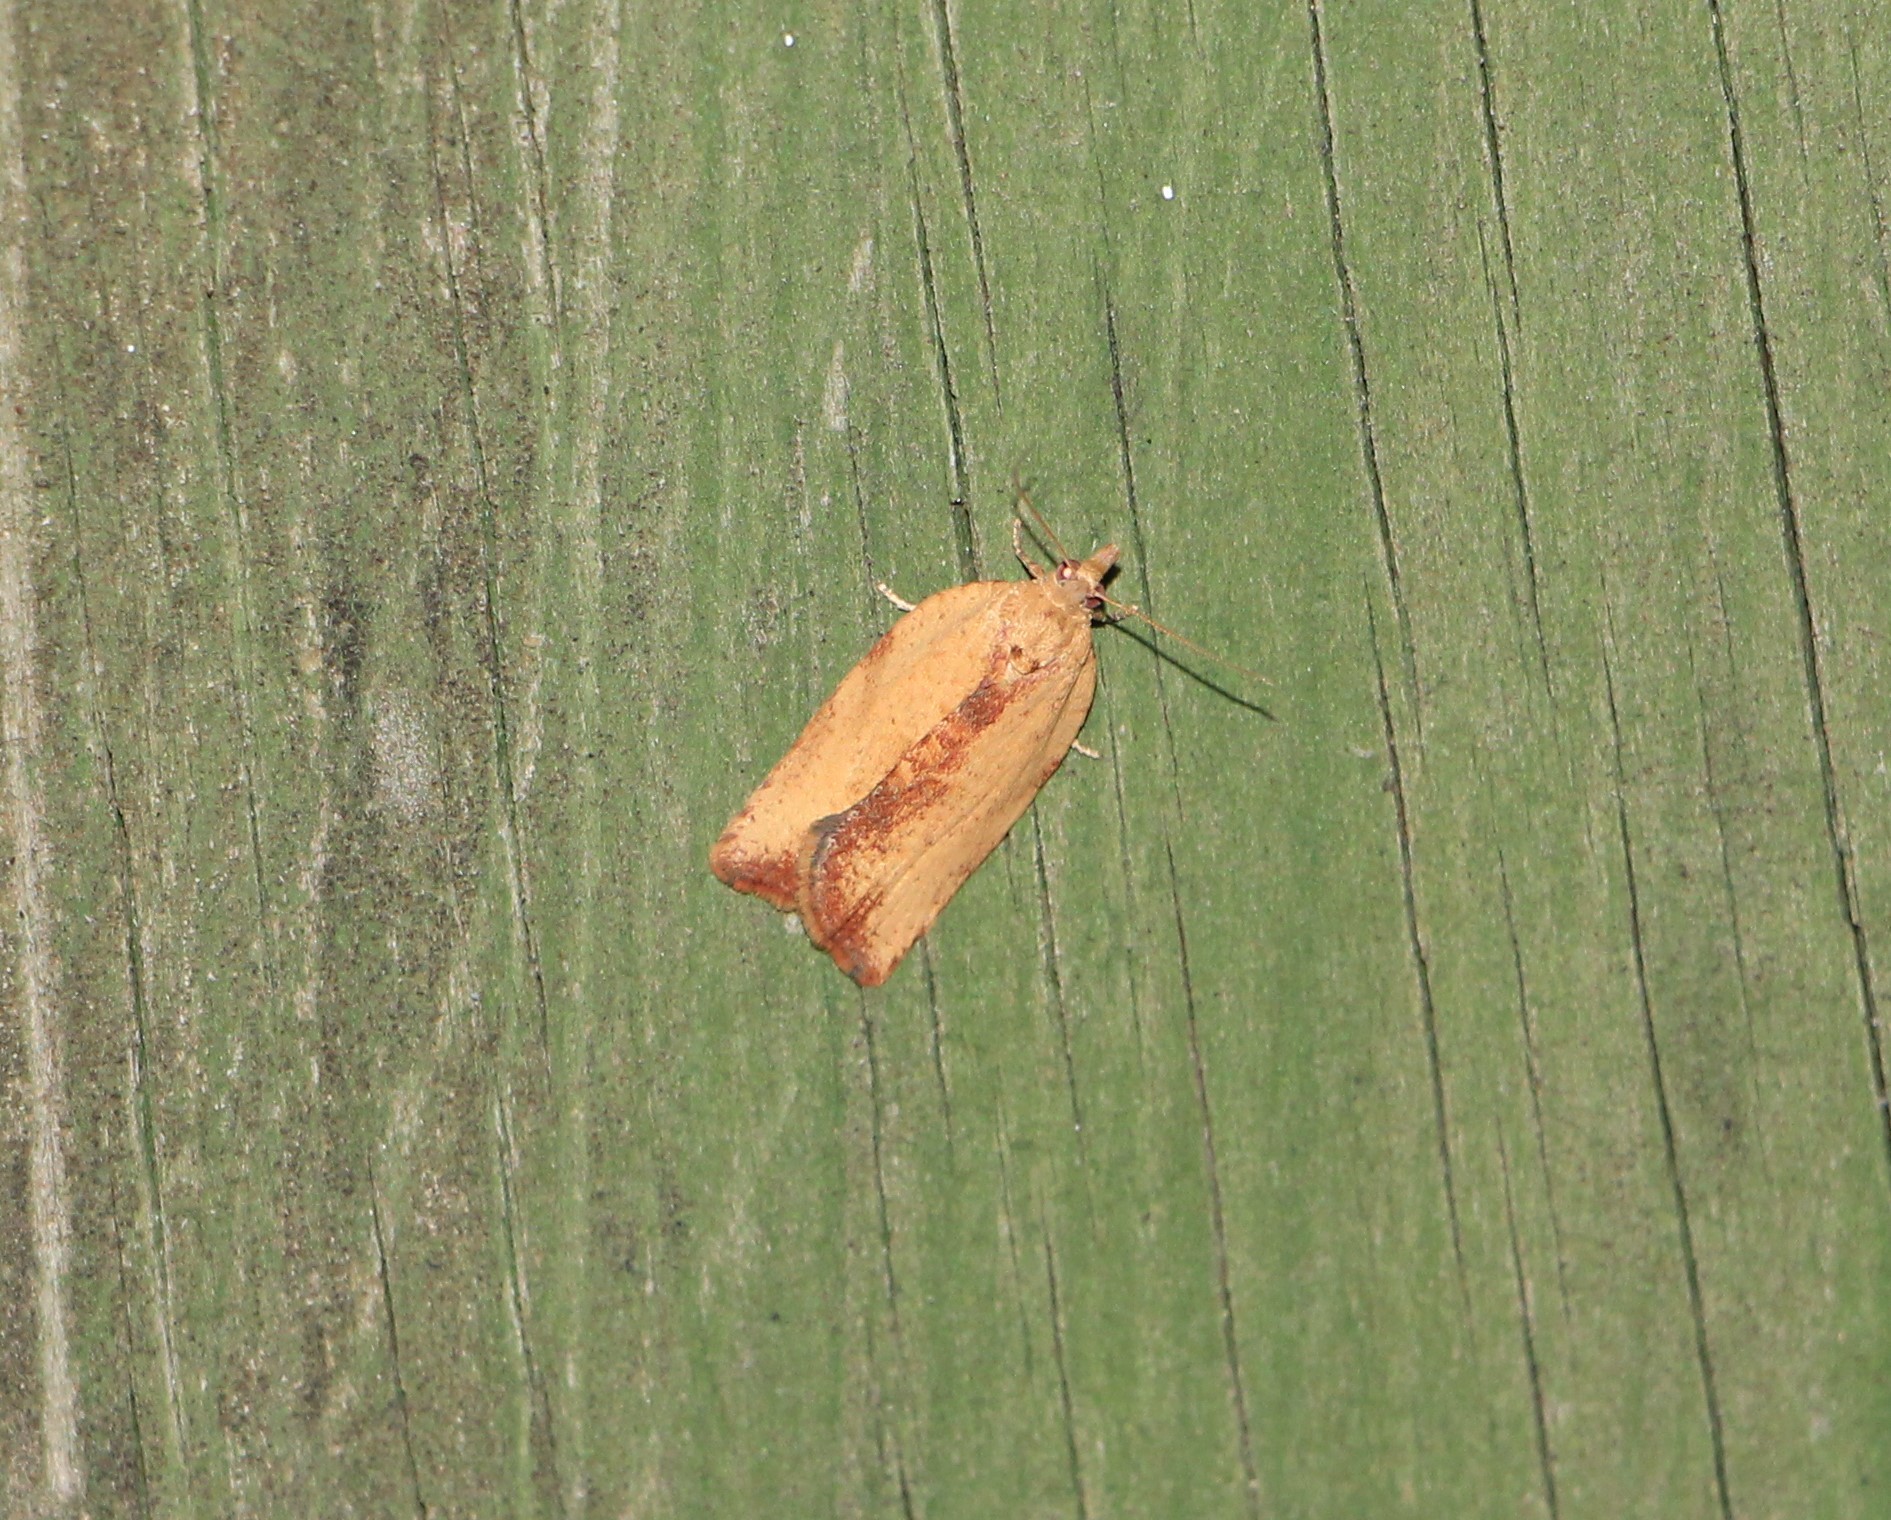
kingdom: Animalia
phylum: Arthropoda
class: Insecta
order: Lepidoptera
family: Tortricidae
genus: Epiphyas
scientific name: Epiphyas postvittana
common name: Light brown apple moth
